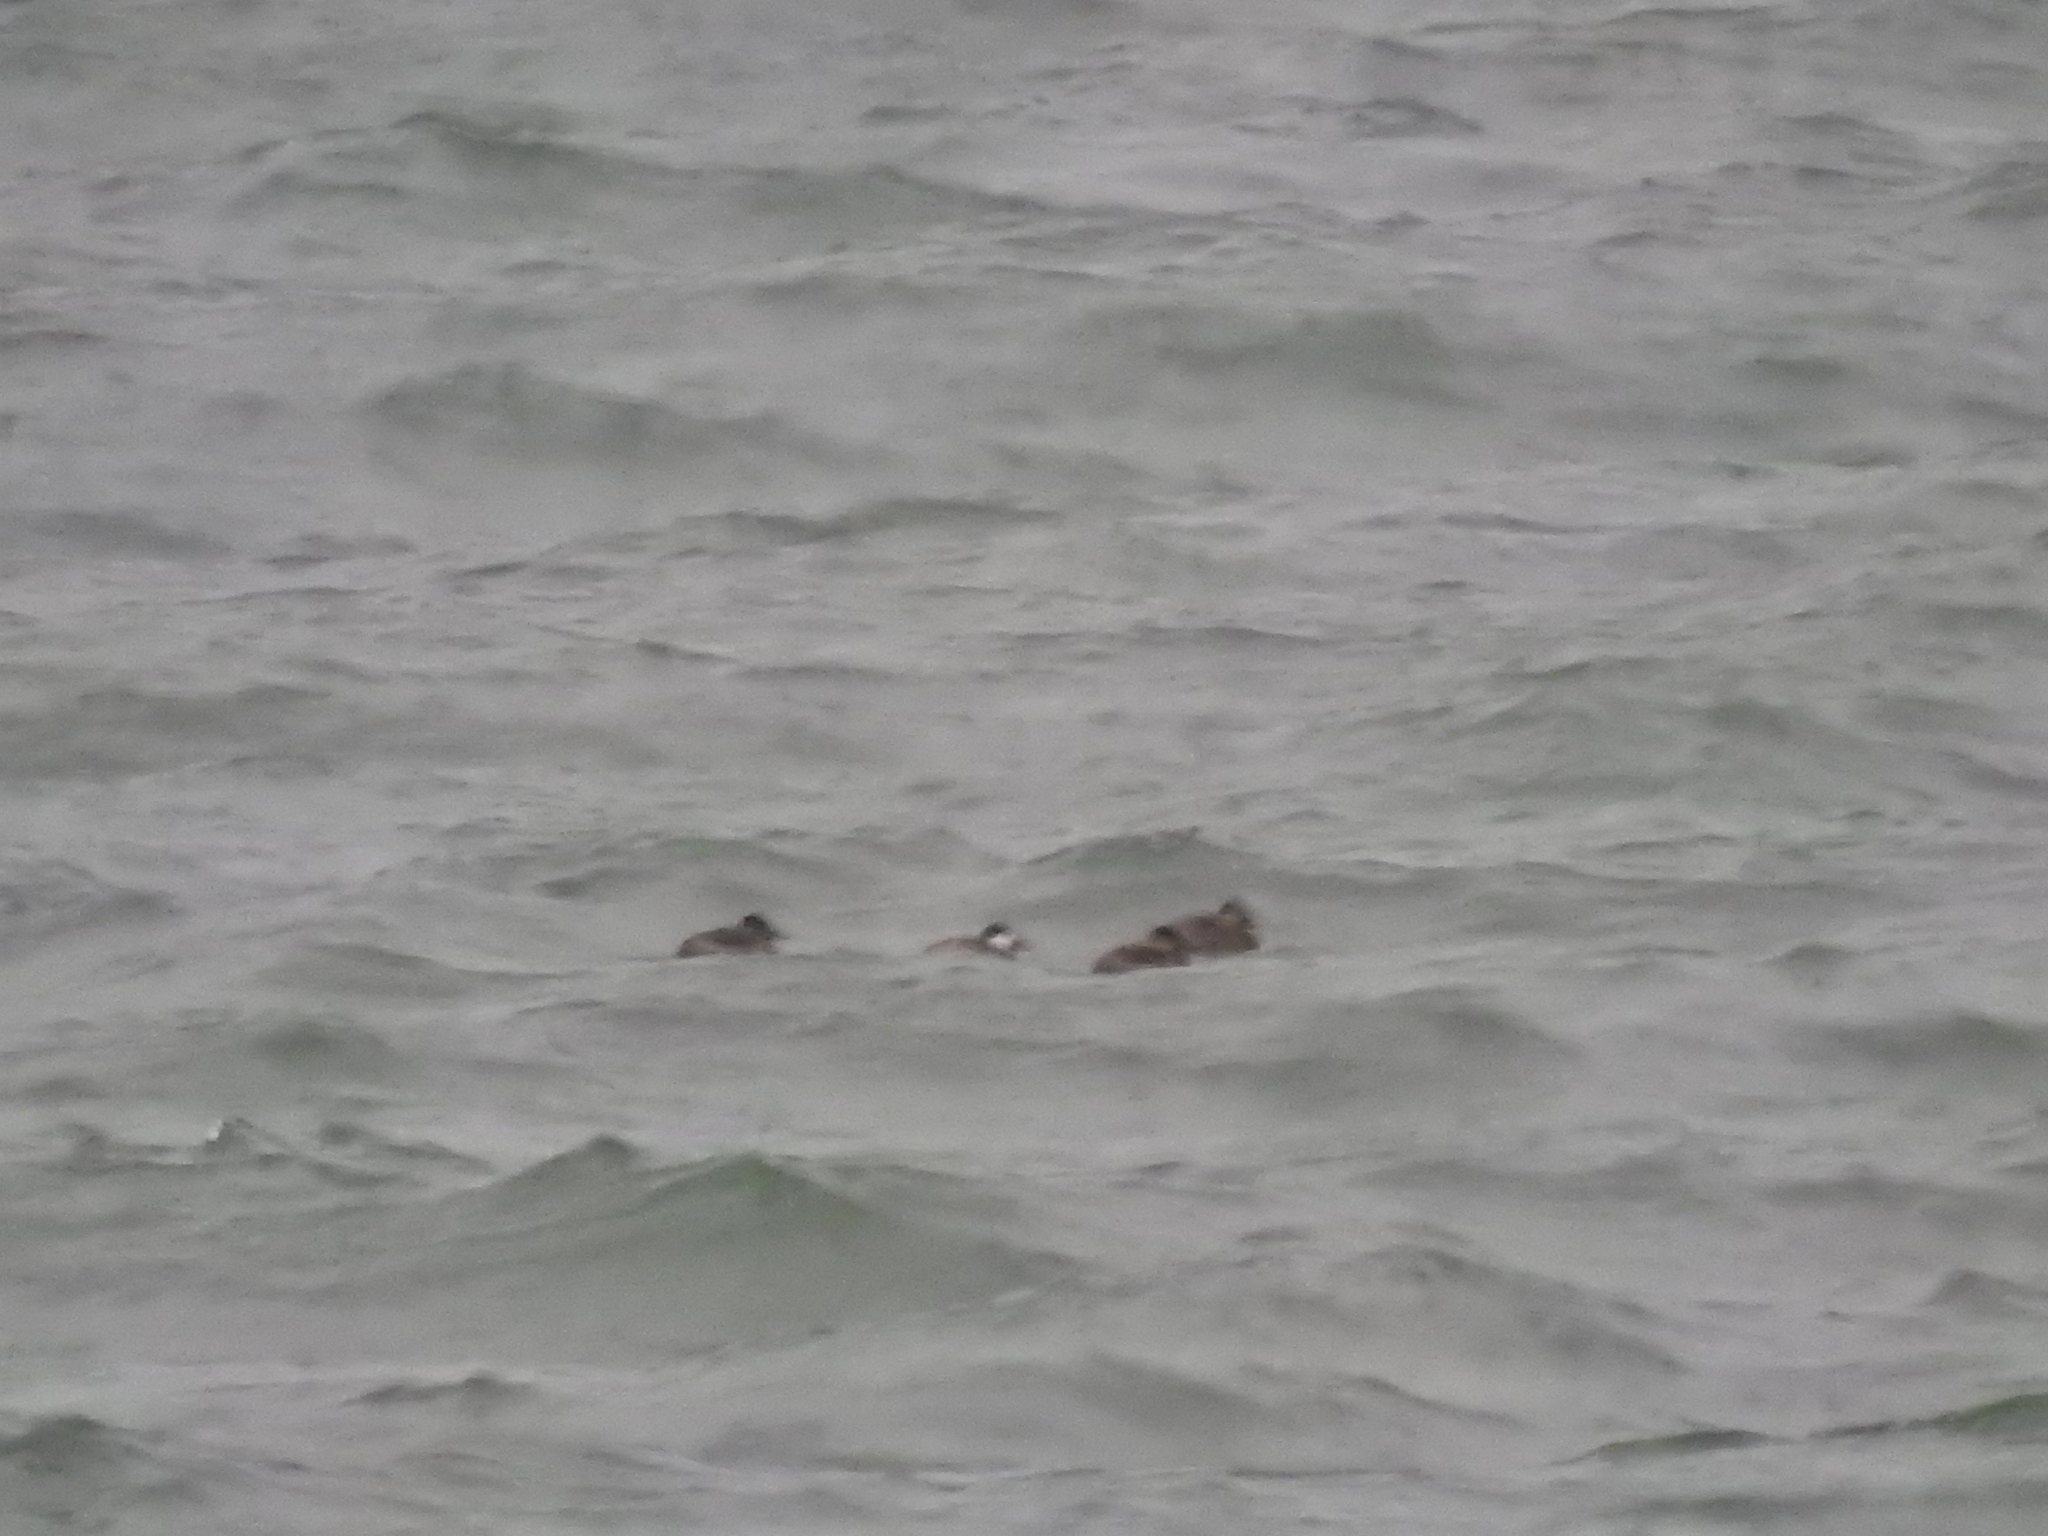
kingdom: Animalia
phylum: Chordata
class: Aves
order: Anseriformes
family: Anatidae
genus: Oxyura
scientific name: Oxyura jamaicensis
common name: Ruddy duck
